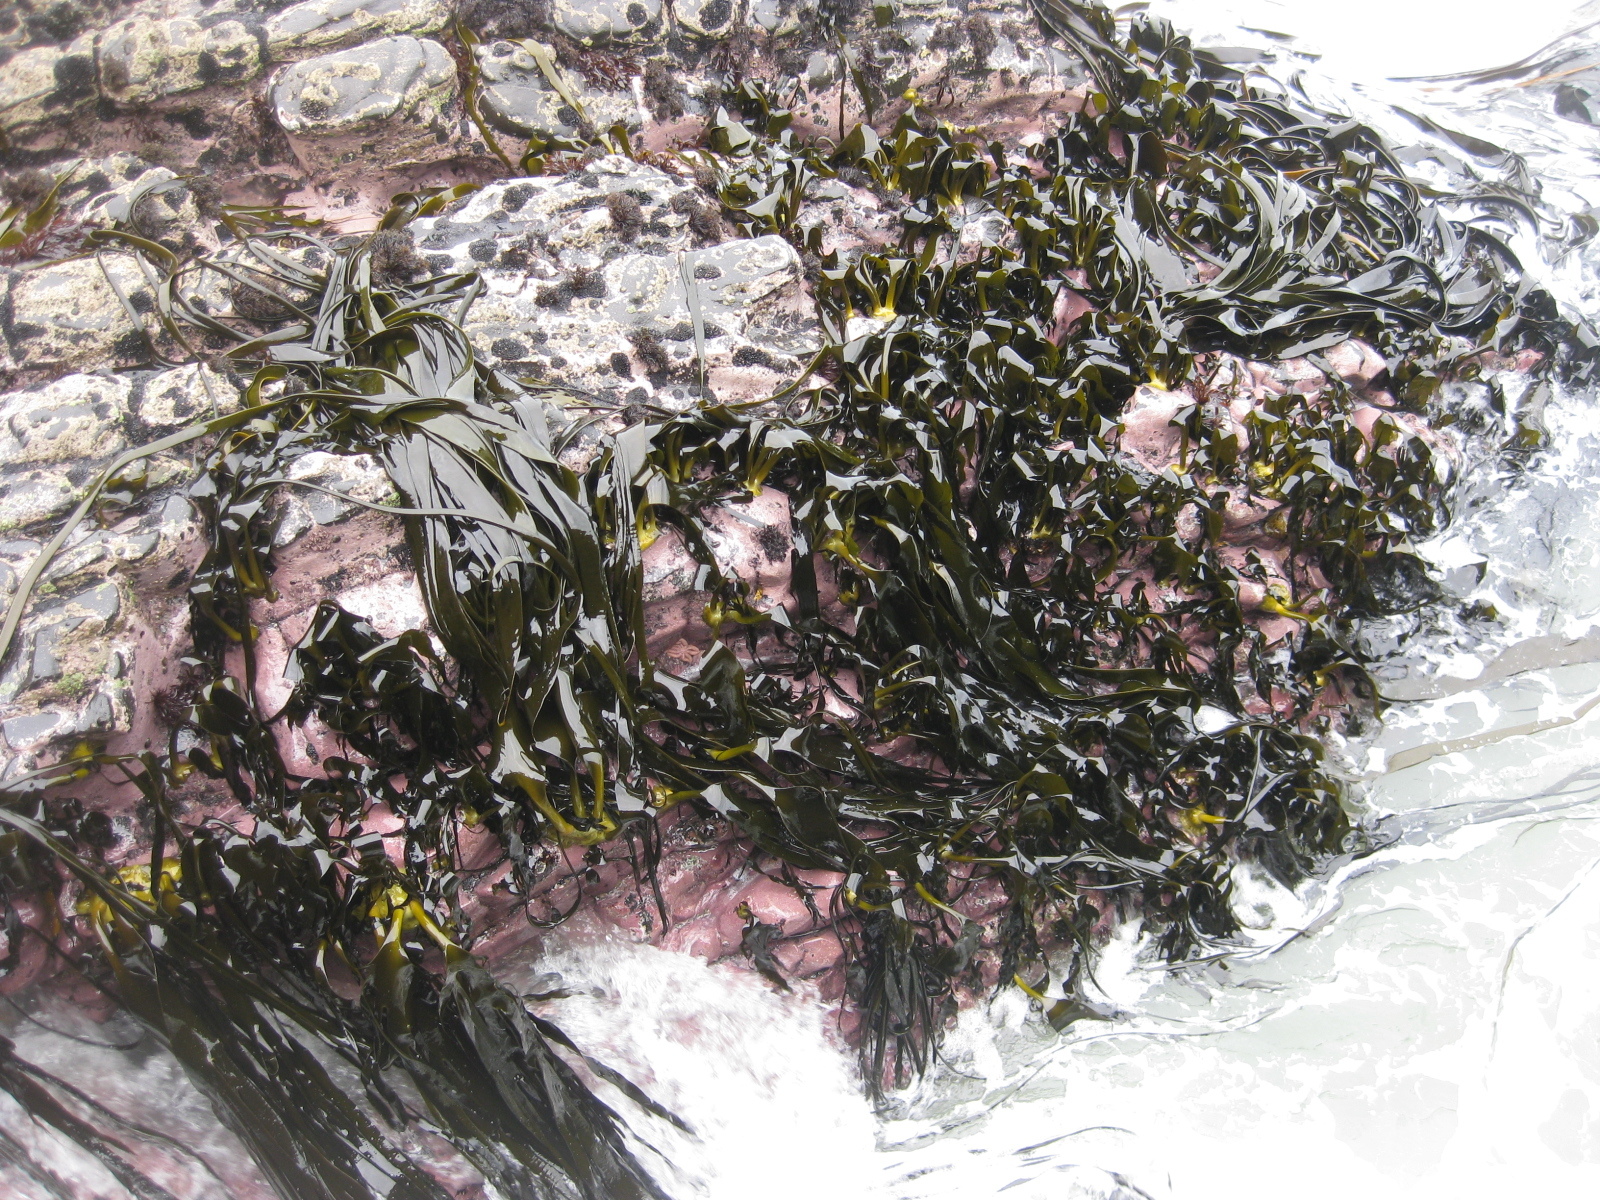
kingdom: Chromista
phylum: Ochrophyta
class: Phaeophyceae
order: Fucales
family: Durvillaeaceae
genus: Durvillaea
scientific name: Durvillaea antarctica
